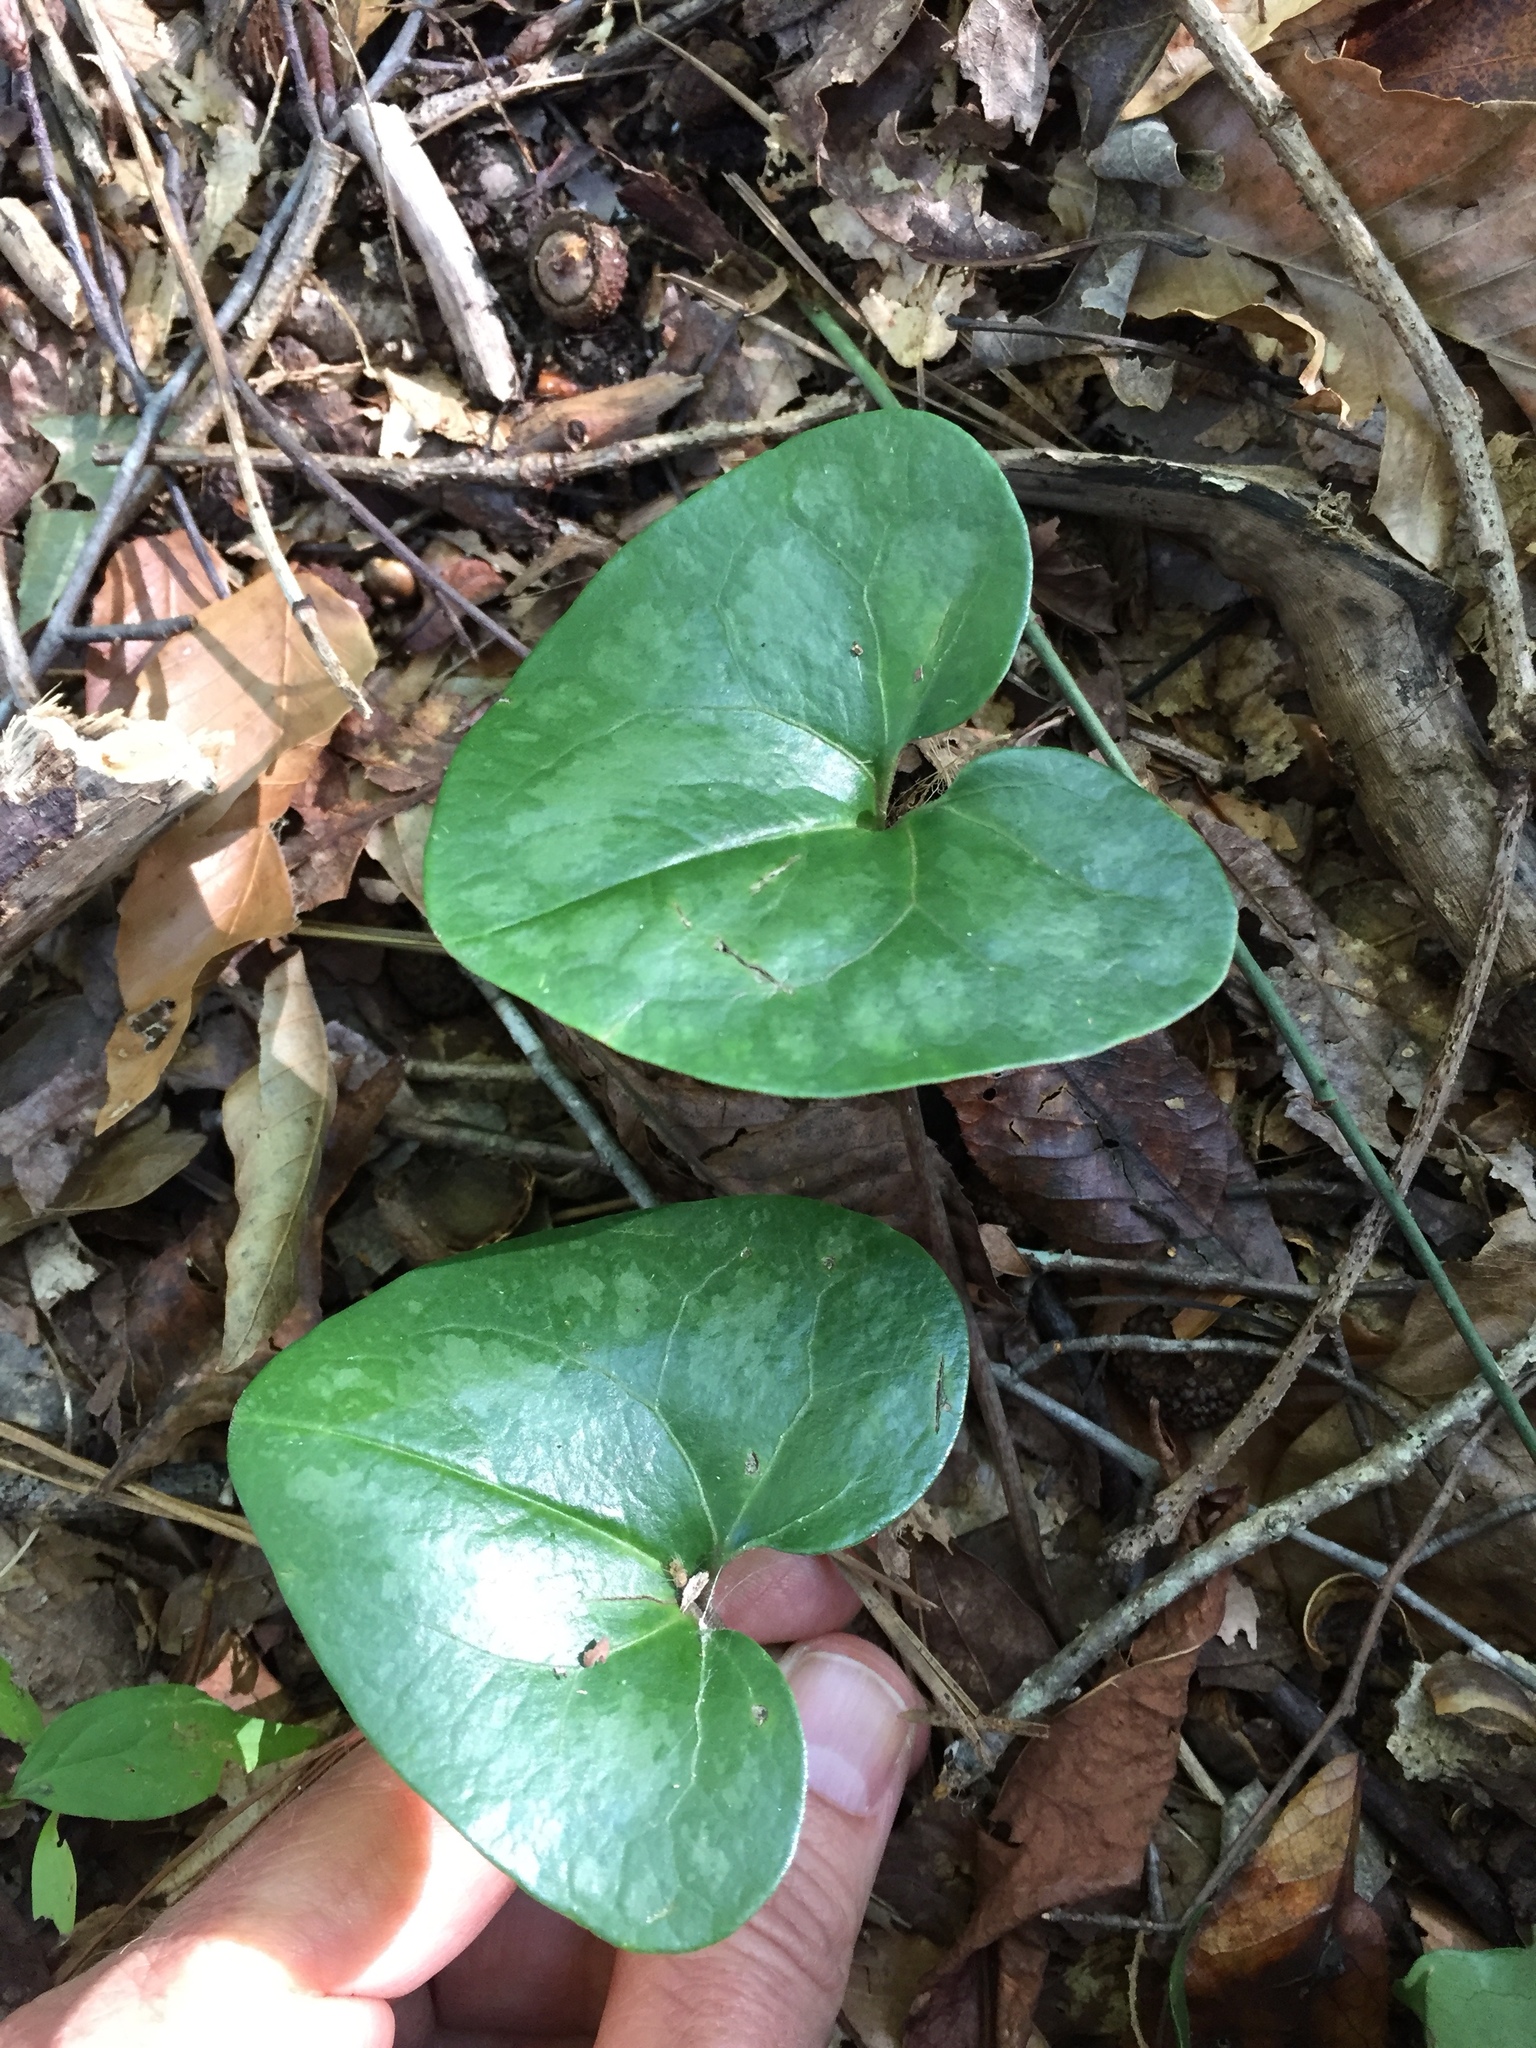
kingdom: Plantae
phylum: Tracheophyta
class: Magnoliopsida
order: Piperales
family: Aristolochiaceae
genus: Hexastylis
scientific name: Hexastylis arifolia
